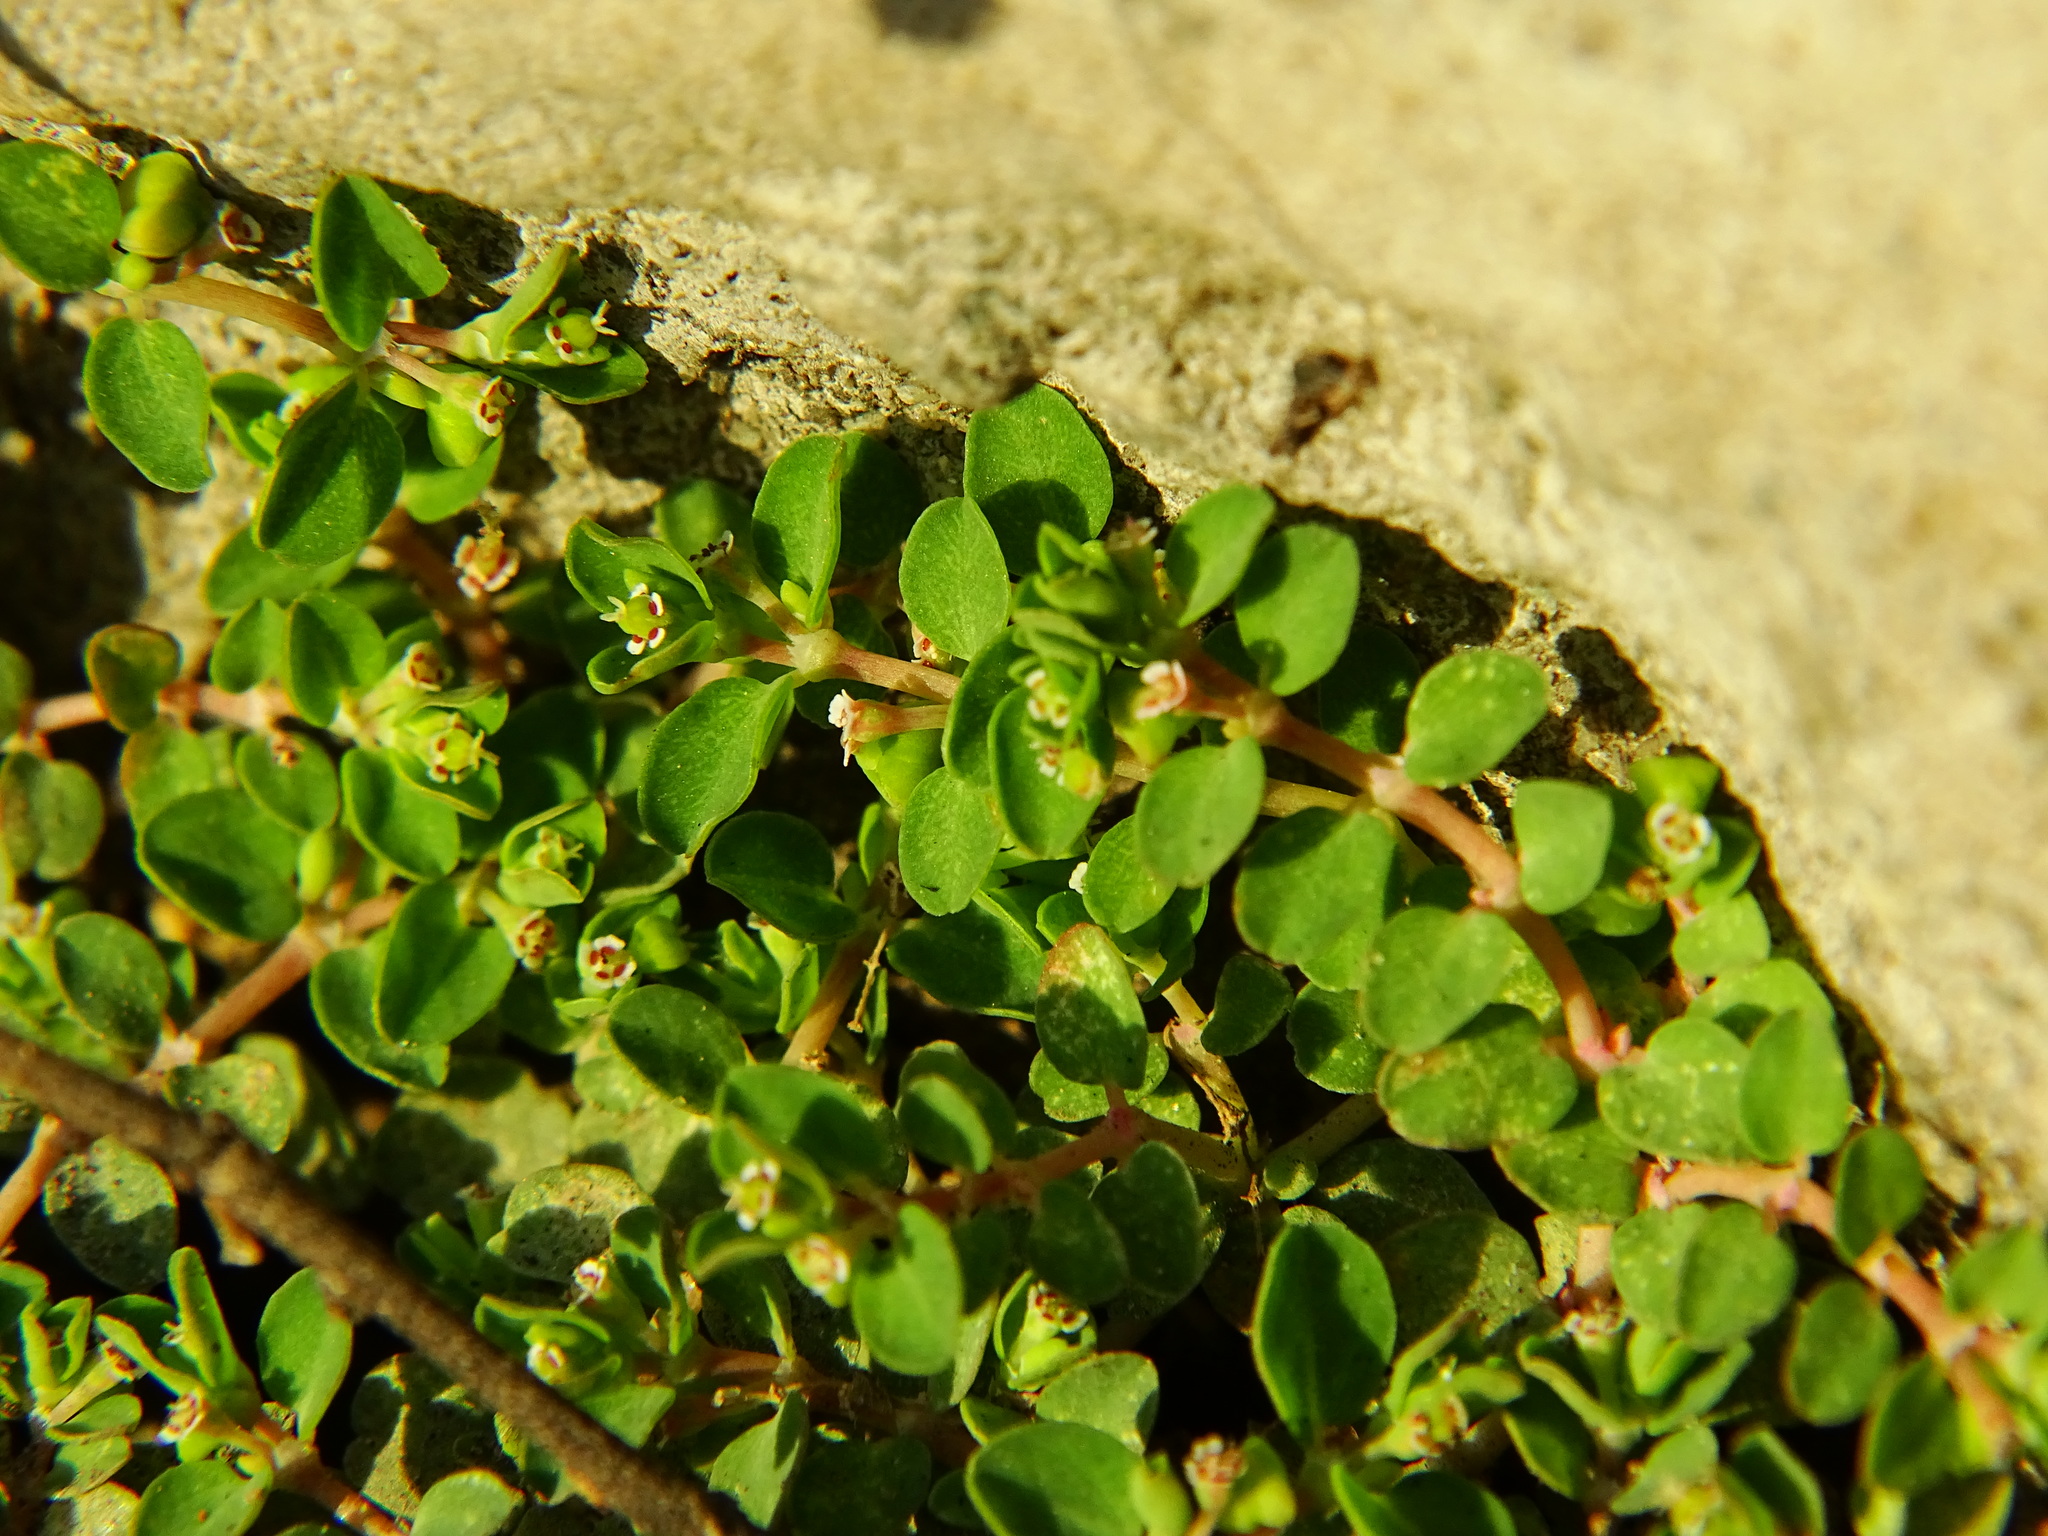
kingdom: Plantae
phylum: Tracheophyta
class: Magnoliopsida
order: Malpighiales
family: Euphorbiaceae
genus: Euphorbia
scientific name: Euphorbia serpens
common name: Matted sandmat
